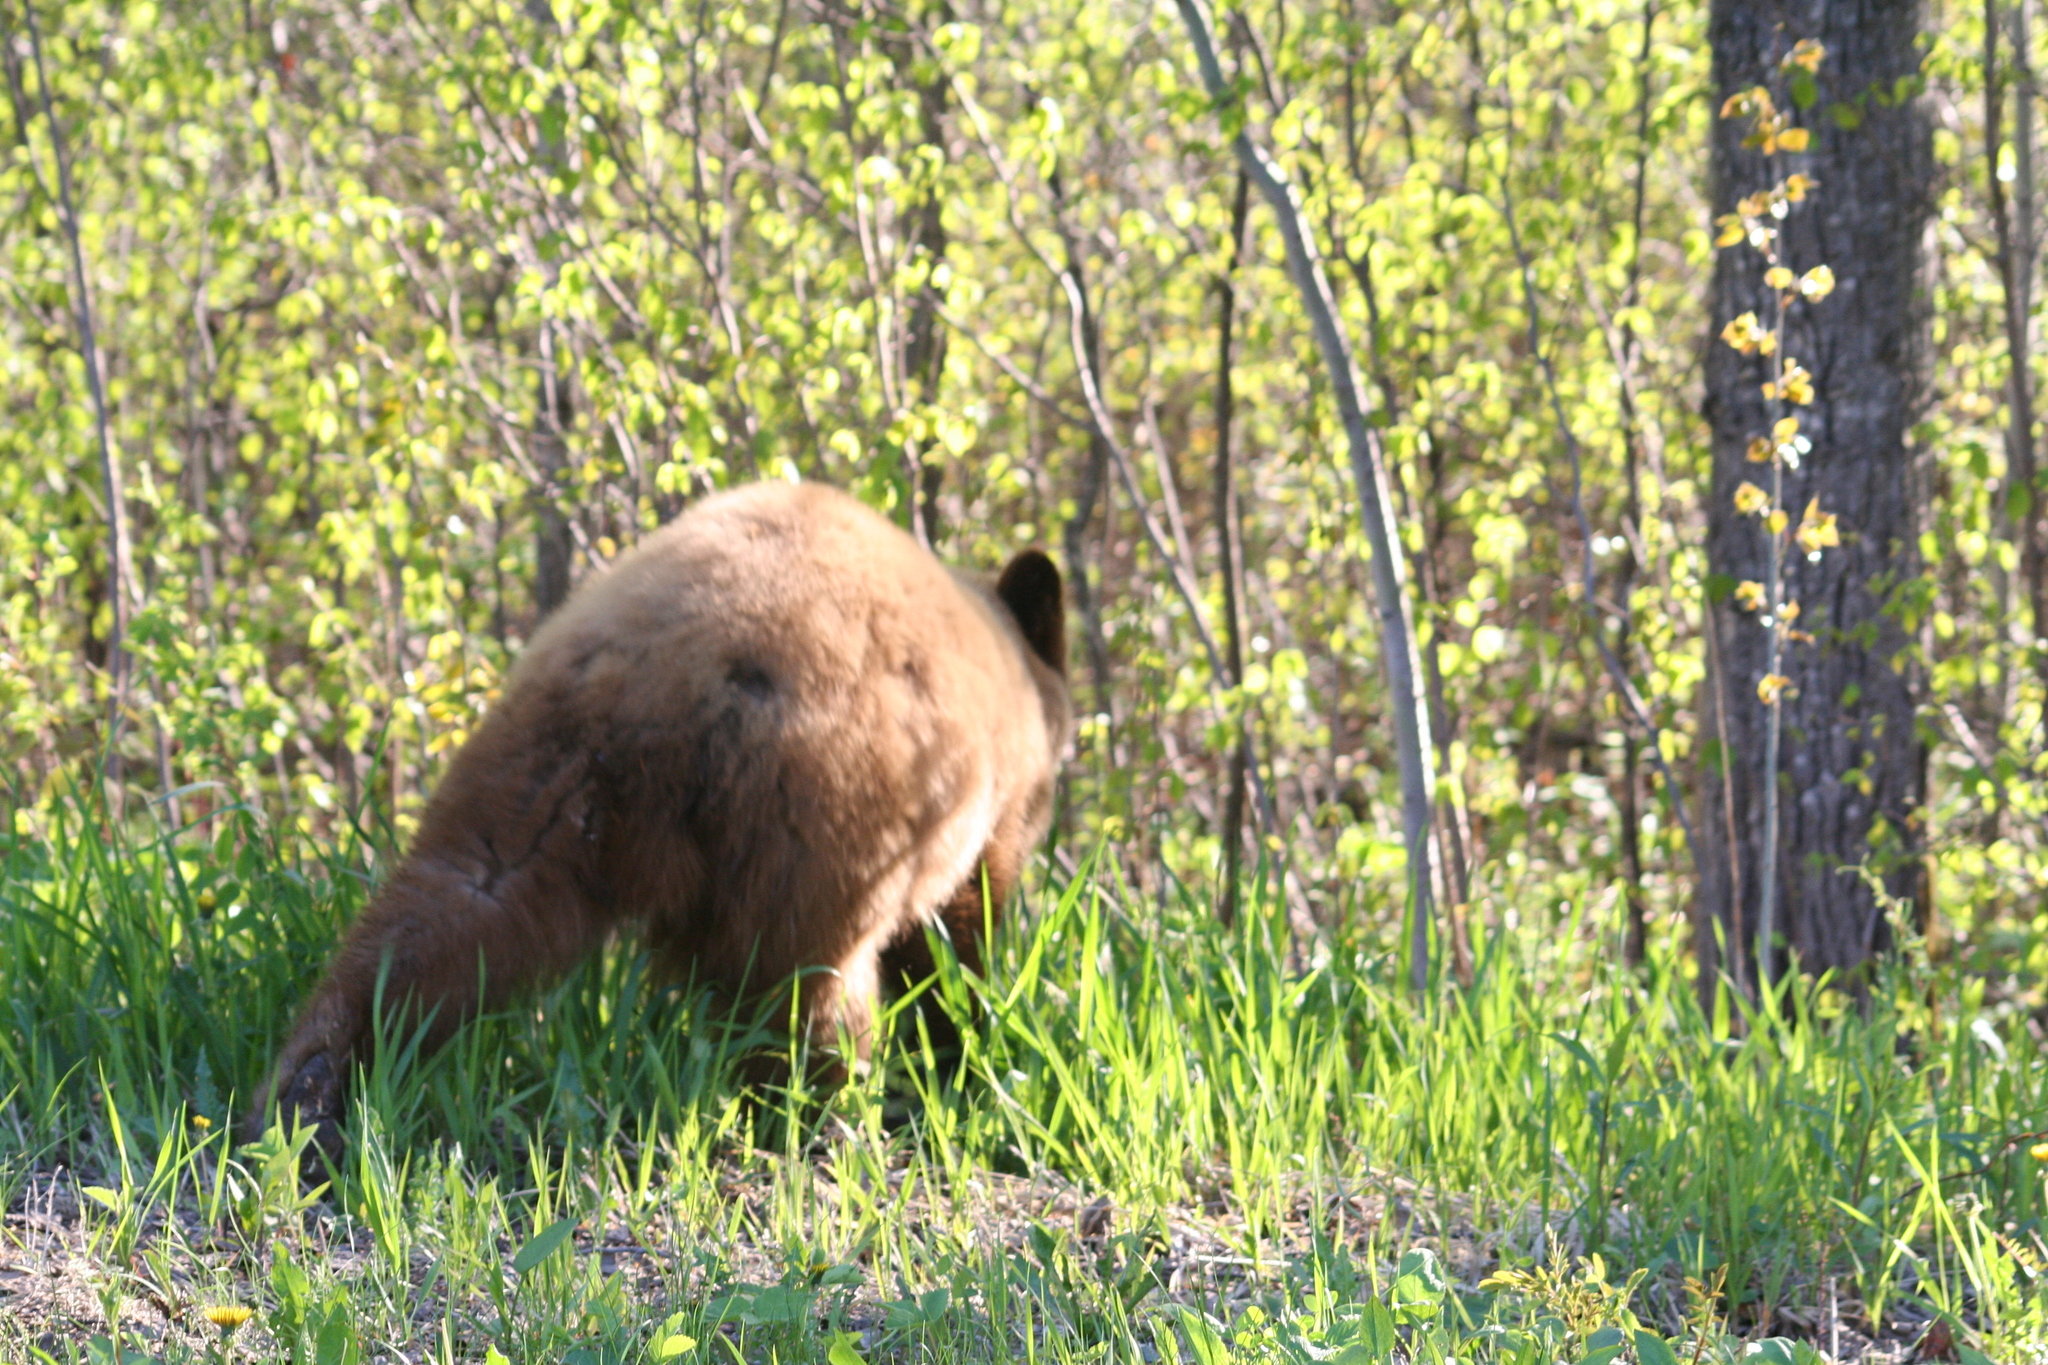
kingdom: Animalia
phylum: Chordata
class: Mammalia
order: Carnivora
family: Ursidae
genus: Ursus
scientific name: Ursus americanus
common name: American black bear
